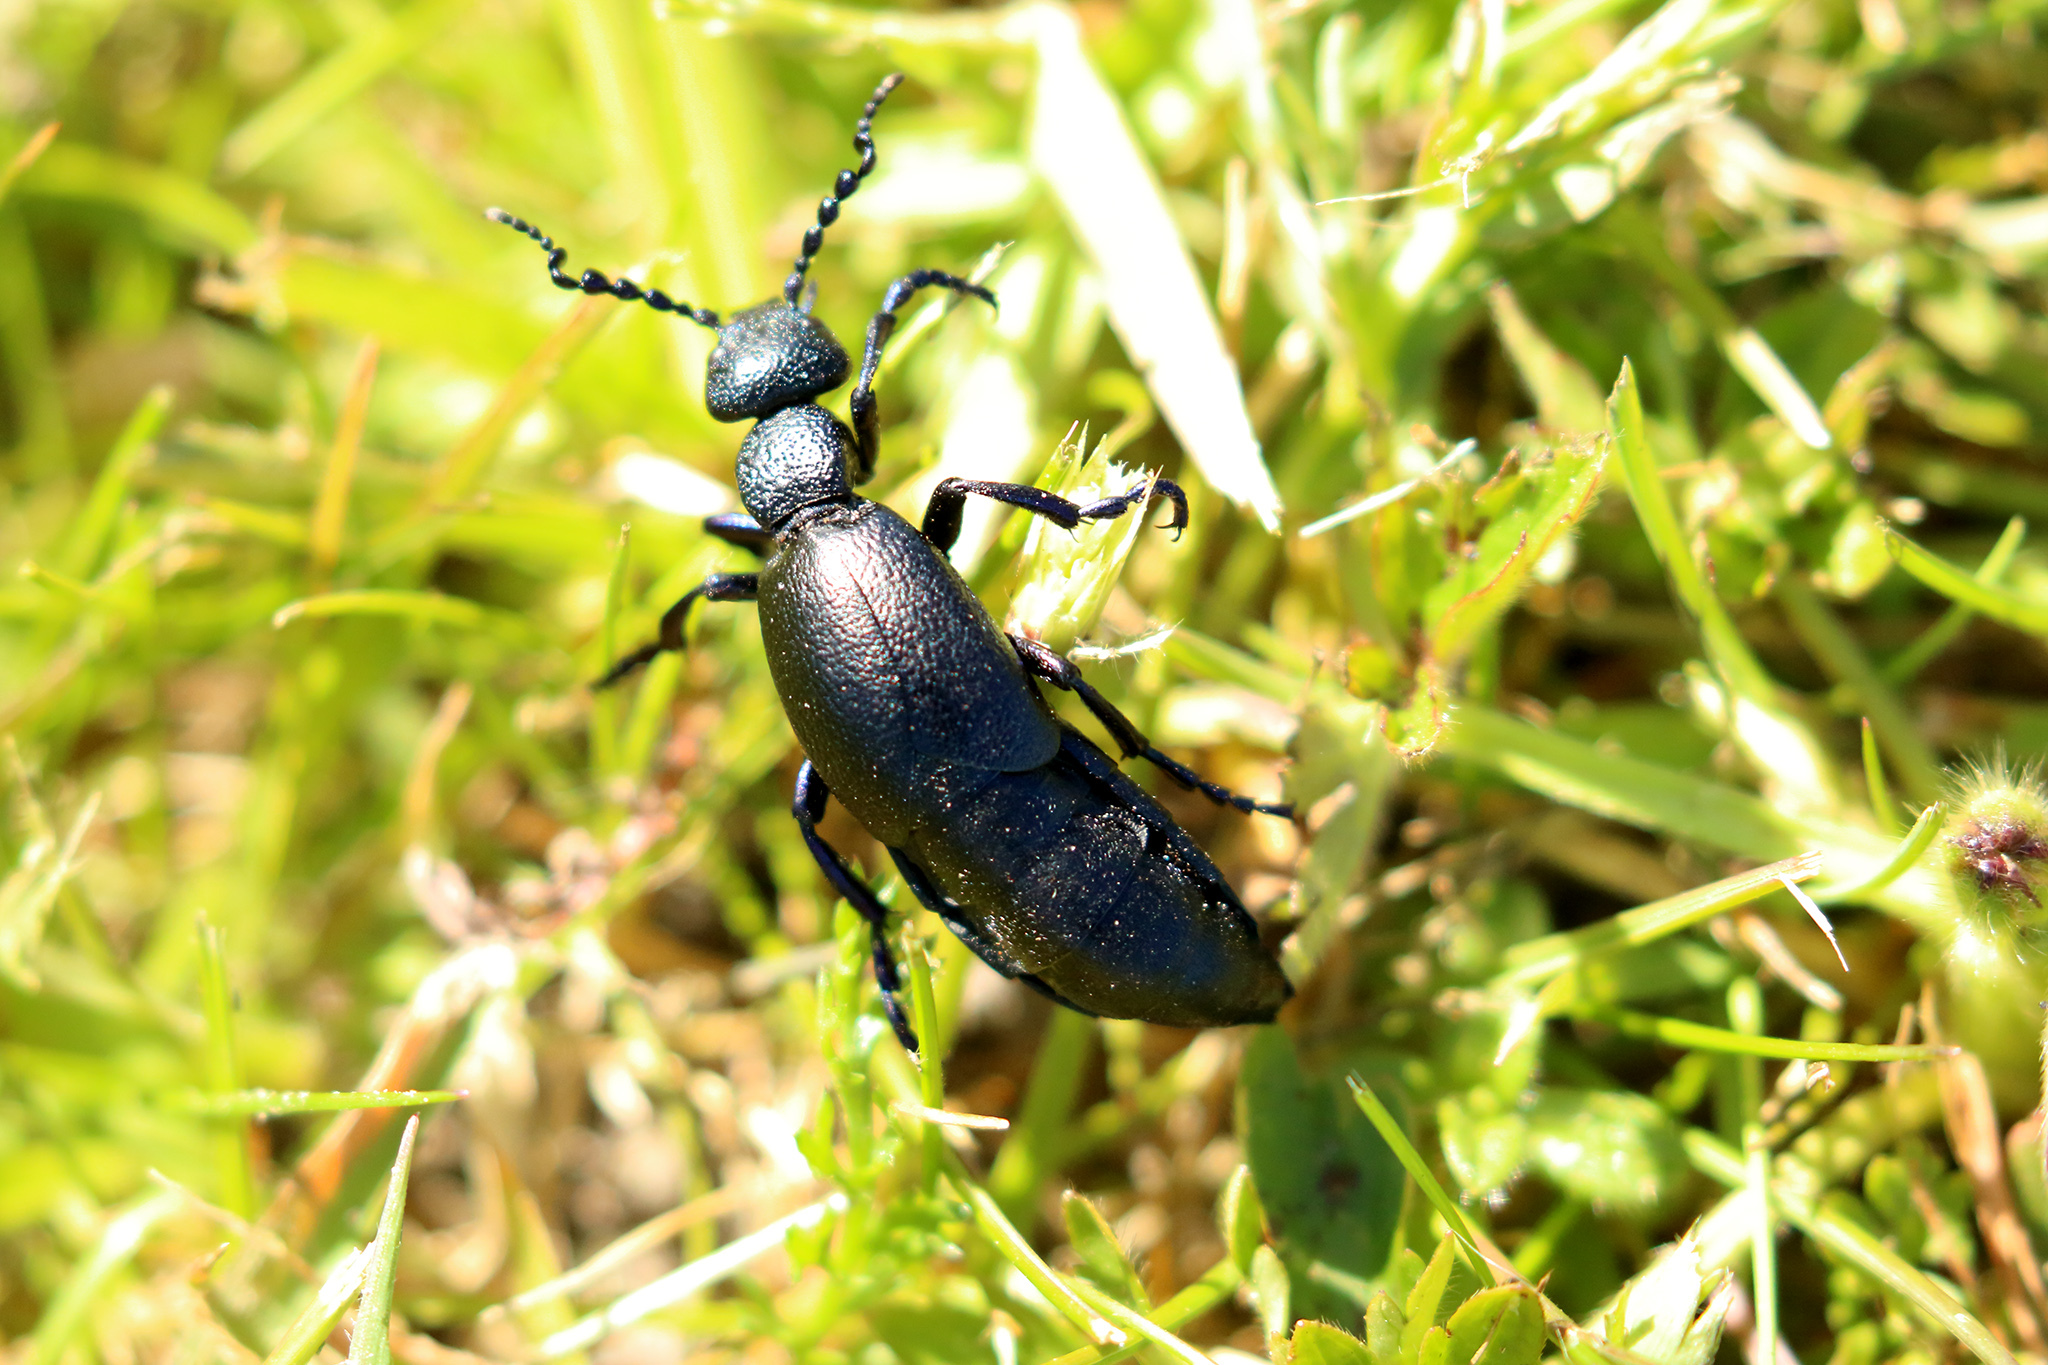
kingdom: Animalia
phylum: Arthropoda
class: Insecta
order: Coleoptera
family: Meloidae
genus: Meloe
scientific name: Meloe proscarabaeus
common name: Black oil-beetle
